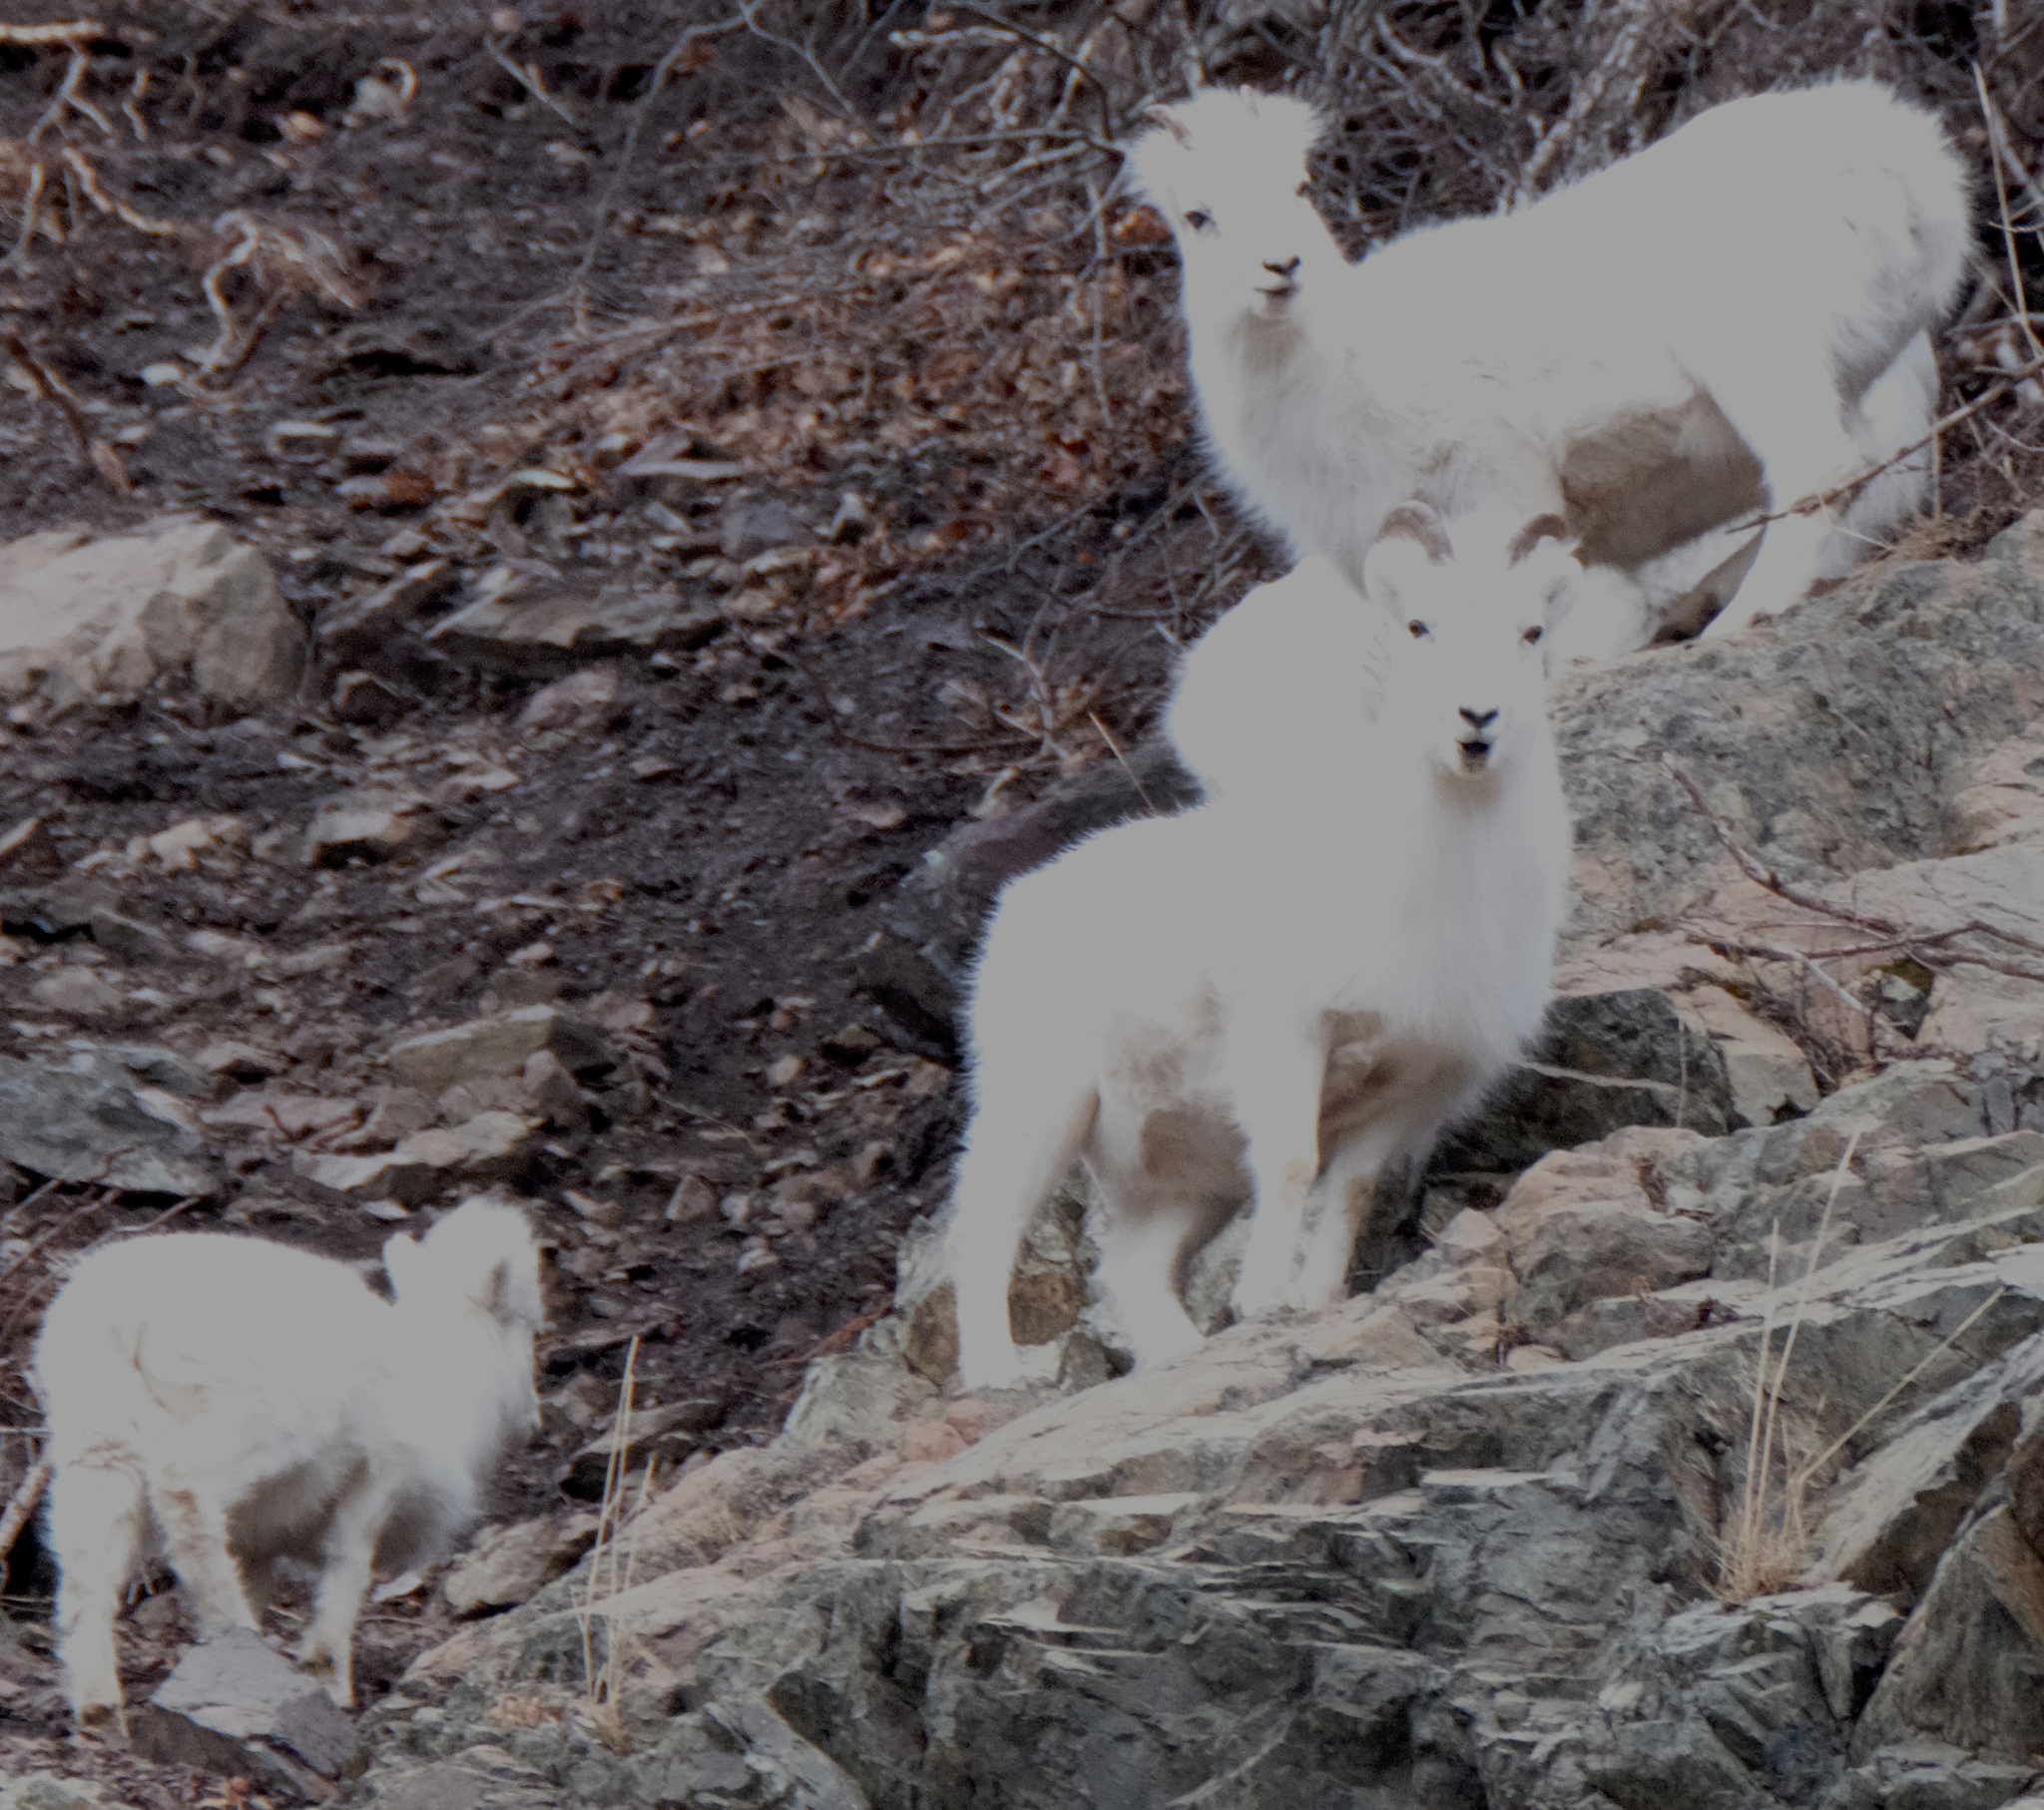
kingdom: Animalia
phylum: Chordata
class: Mammalia
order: Artiodactyla
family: Bovidae
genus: Ovis
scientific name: Ovis dalli
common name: Dall's sheep
